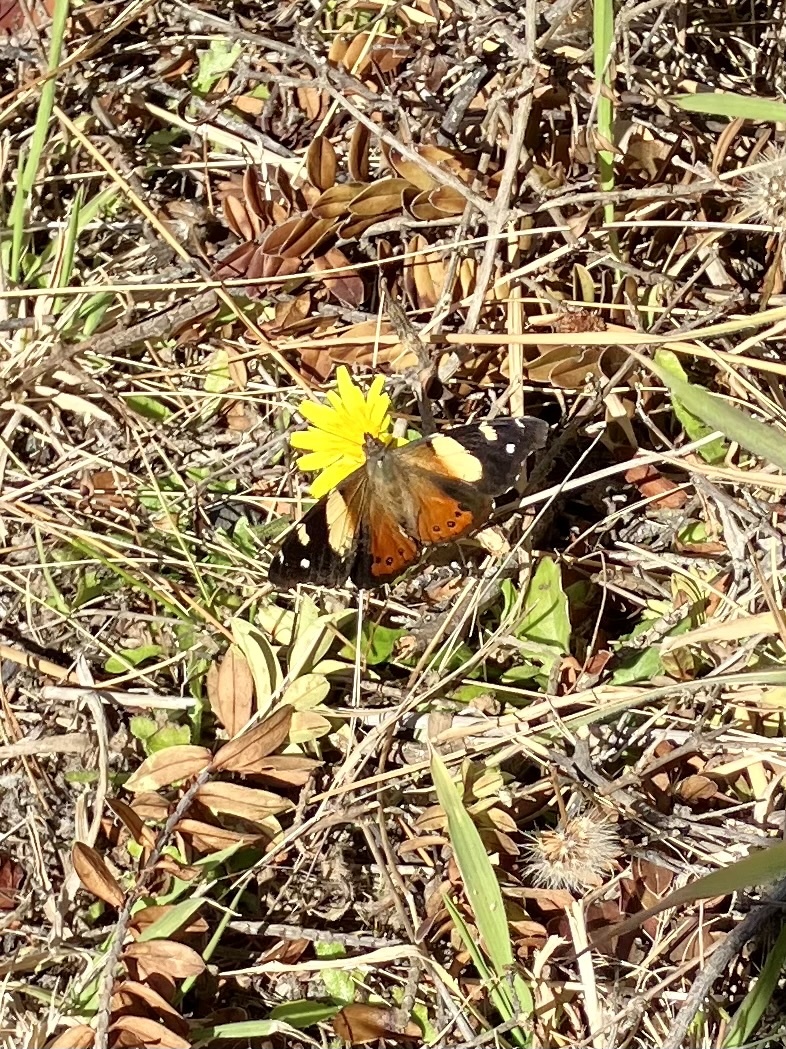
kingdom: Animalia
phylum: Arthropoda
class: Insecta
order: Lepidoptera
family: Nymphalidae
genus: Vanessa
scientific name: Vanessa itea
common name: Yellow admiral
